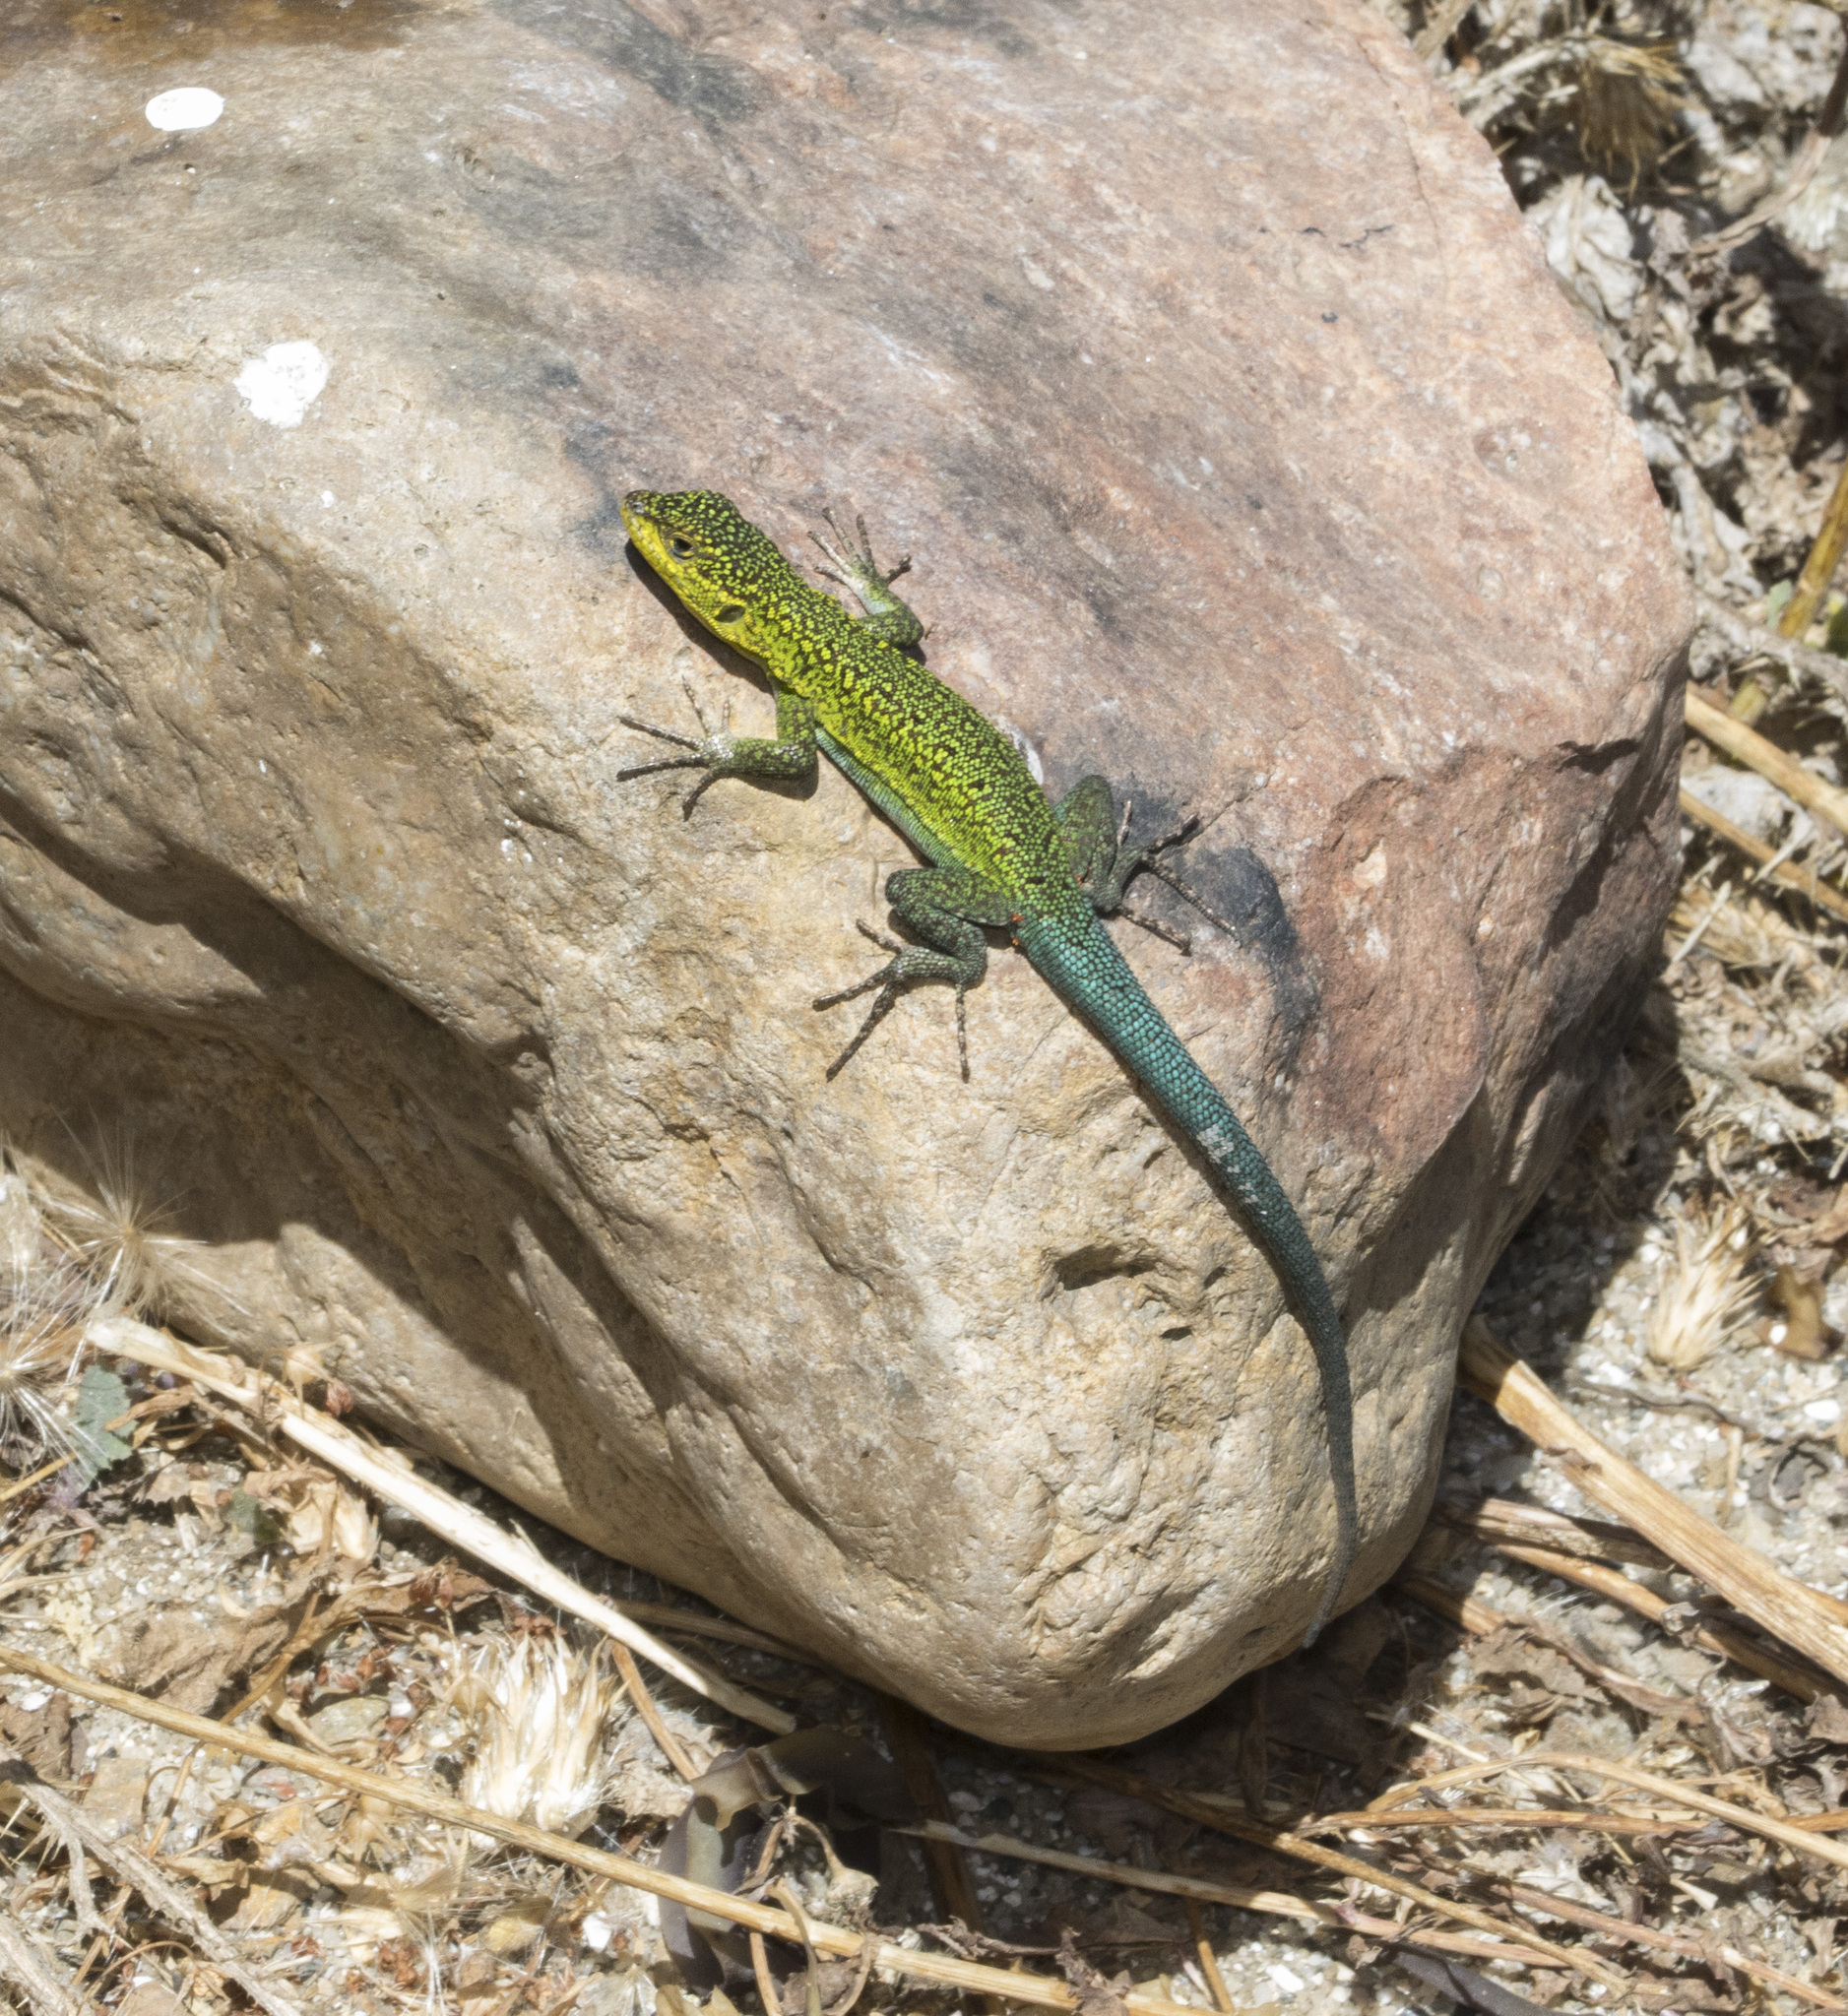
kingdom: Animalia
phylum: Chordata
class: Squamata
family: Liolaemidae
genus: Liolaemus
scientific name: Liolaemus tenuis
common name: Thin tree iguana
